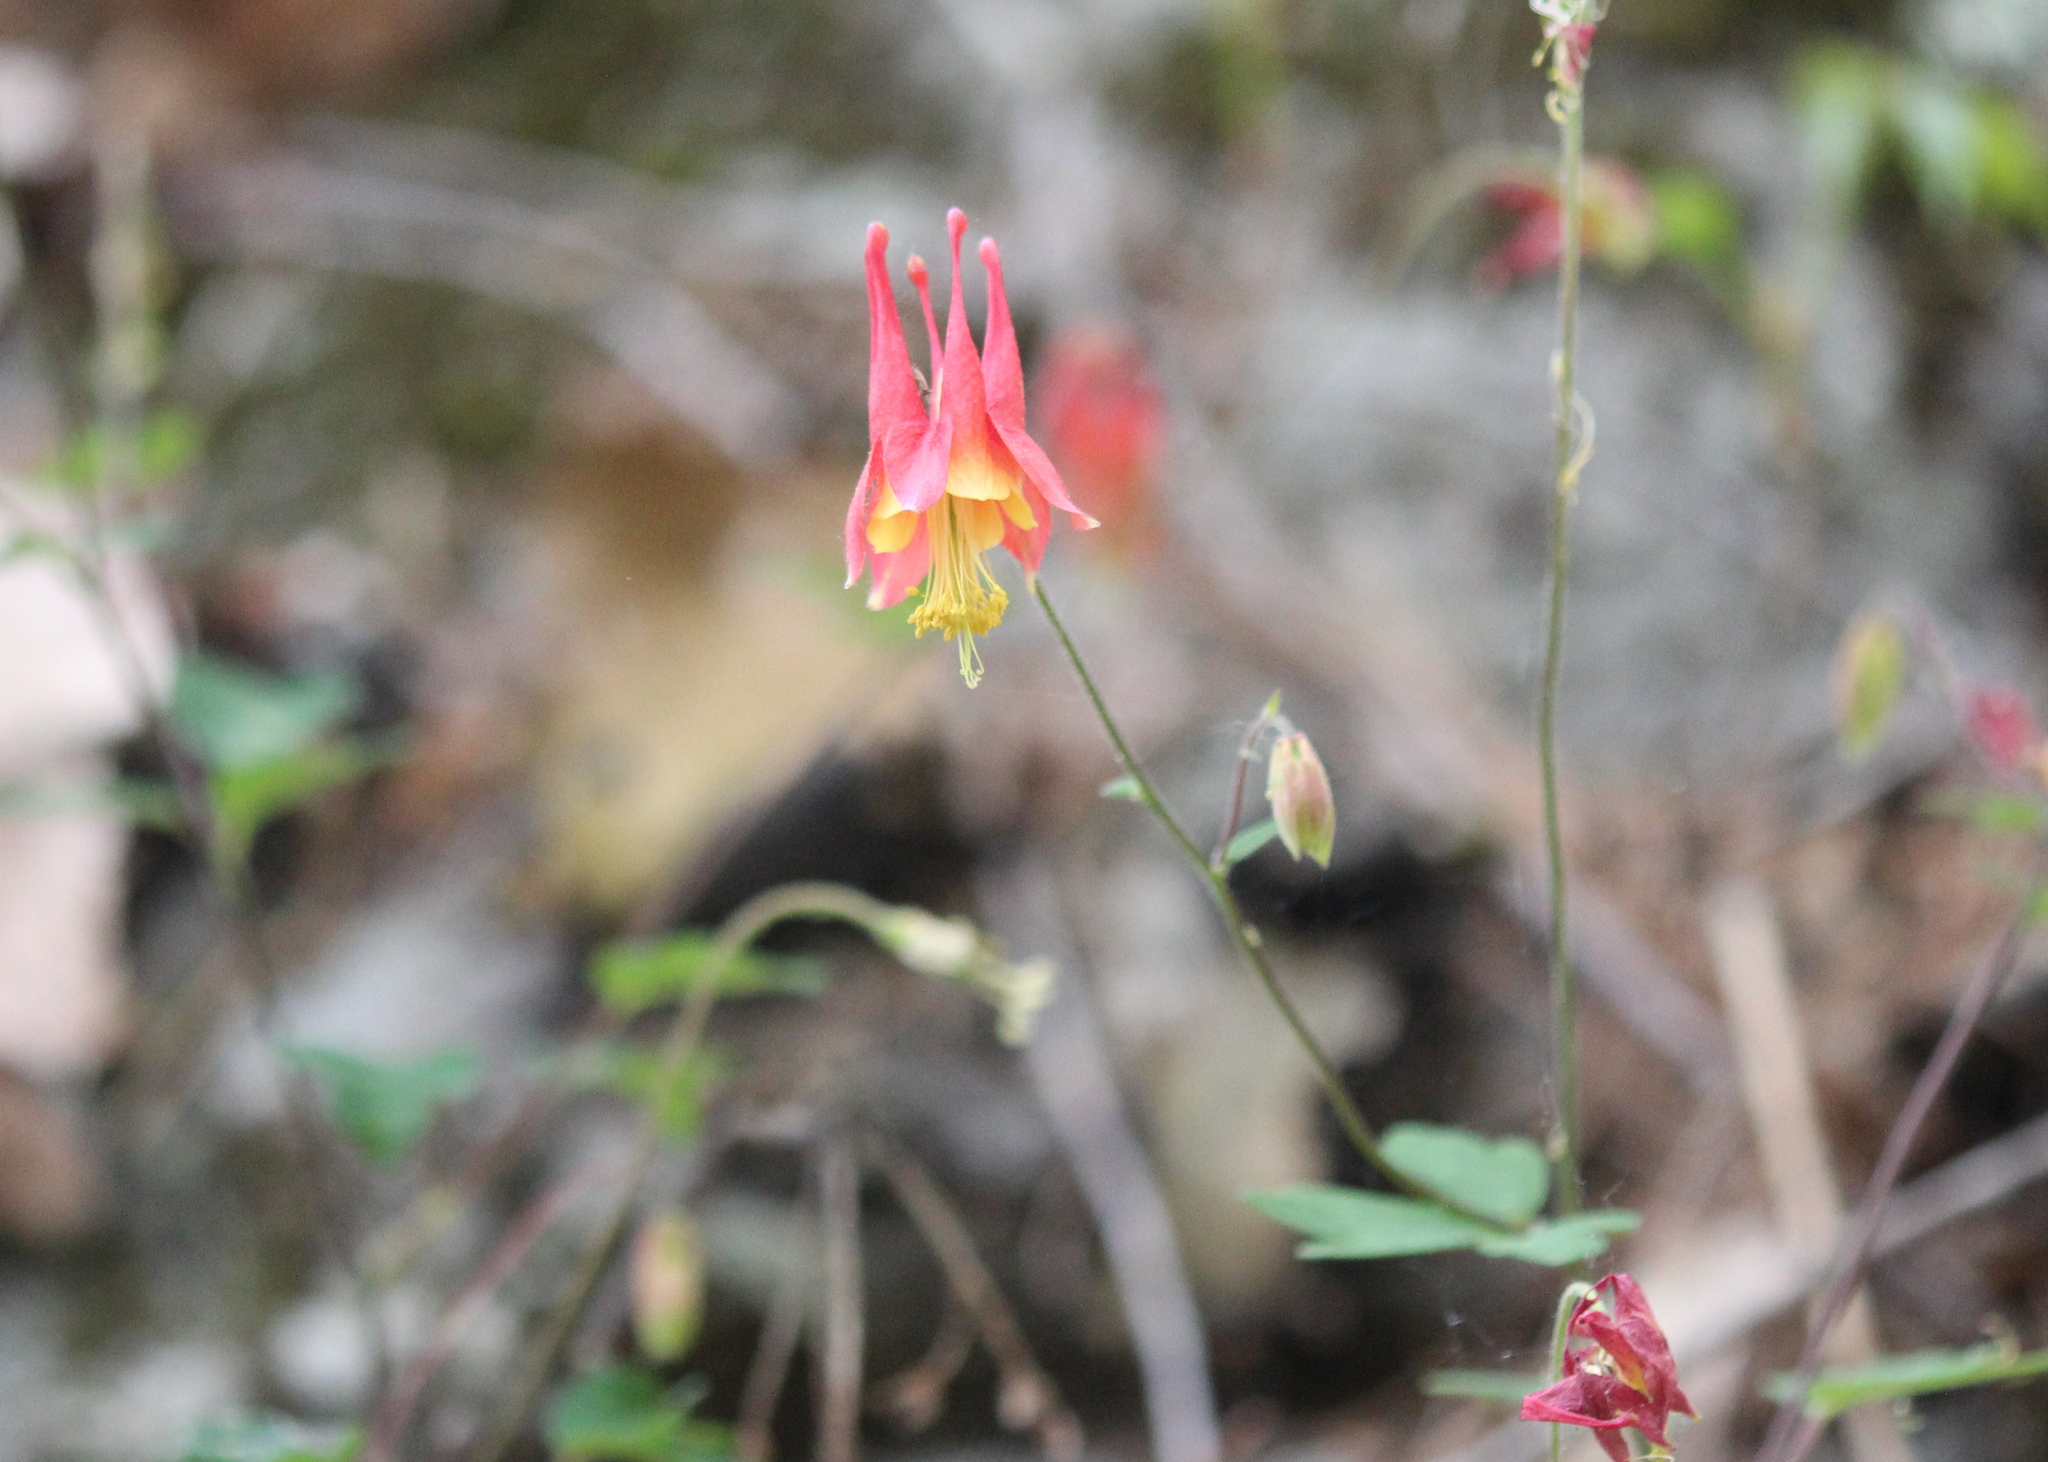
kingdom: Plantae
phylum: Tracheophyta
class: Magnoliopsida
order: Ranunculales
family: Ranunculaceae
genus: Aquilegia
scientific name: Aquilegia canadensis
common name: American columbine
